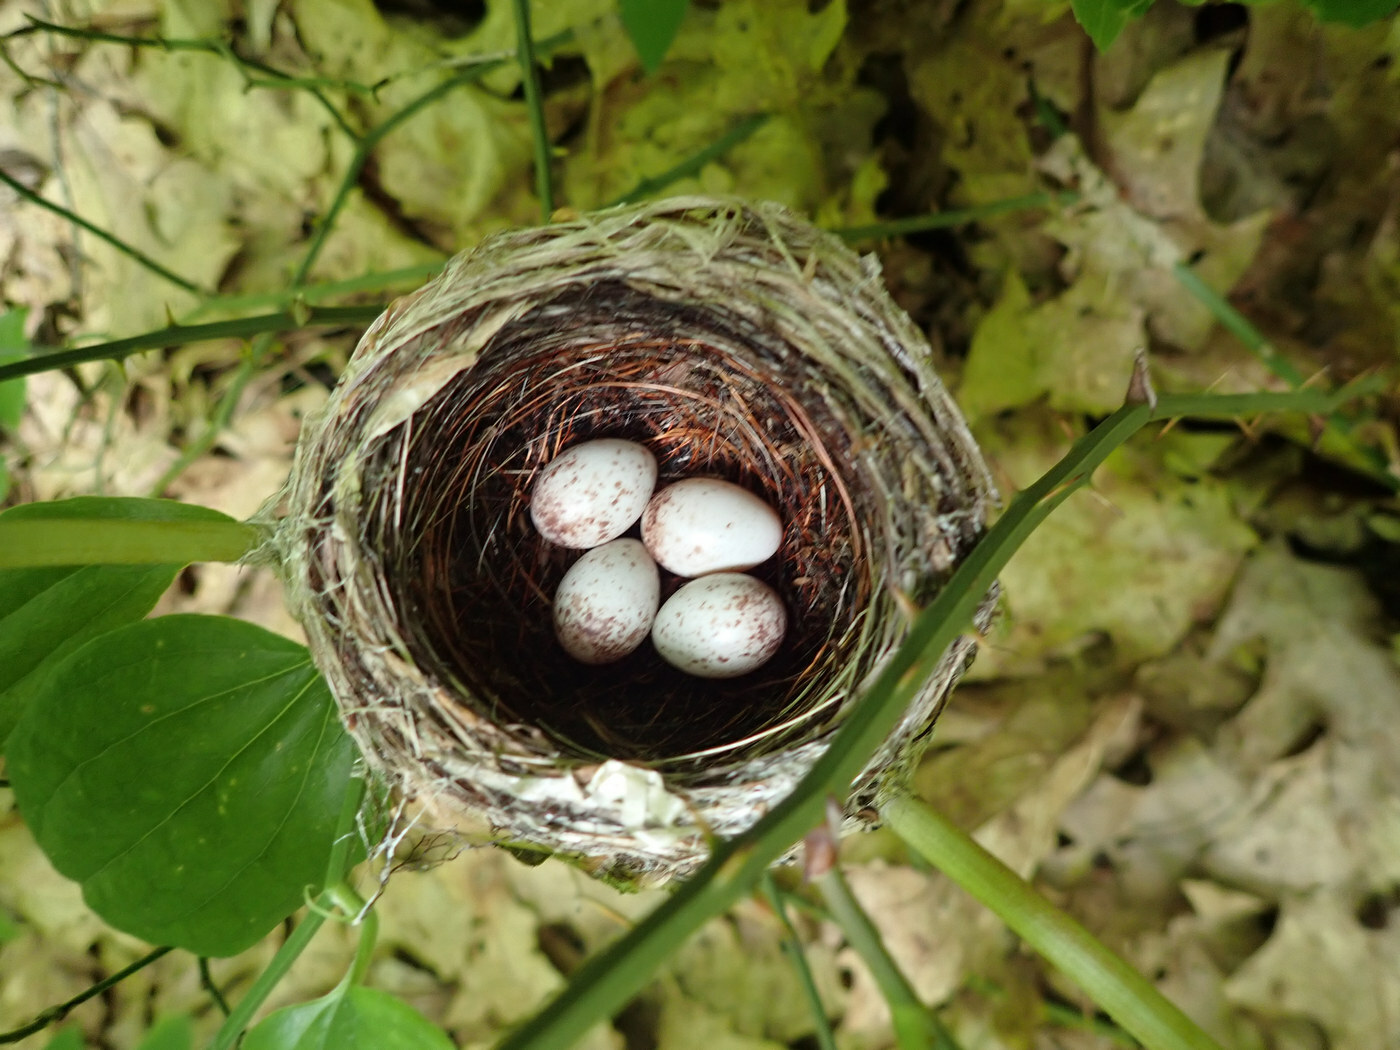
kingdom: Animalia
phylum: Chordata
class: Aves
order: Passeriformes
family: Parulidae
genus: Setophaga
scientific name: Setophaga caerulescens
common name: Black-throated blue warbler
